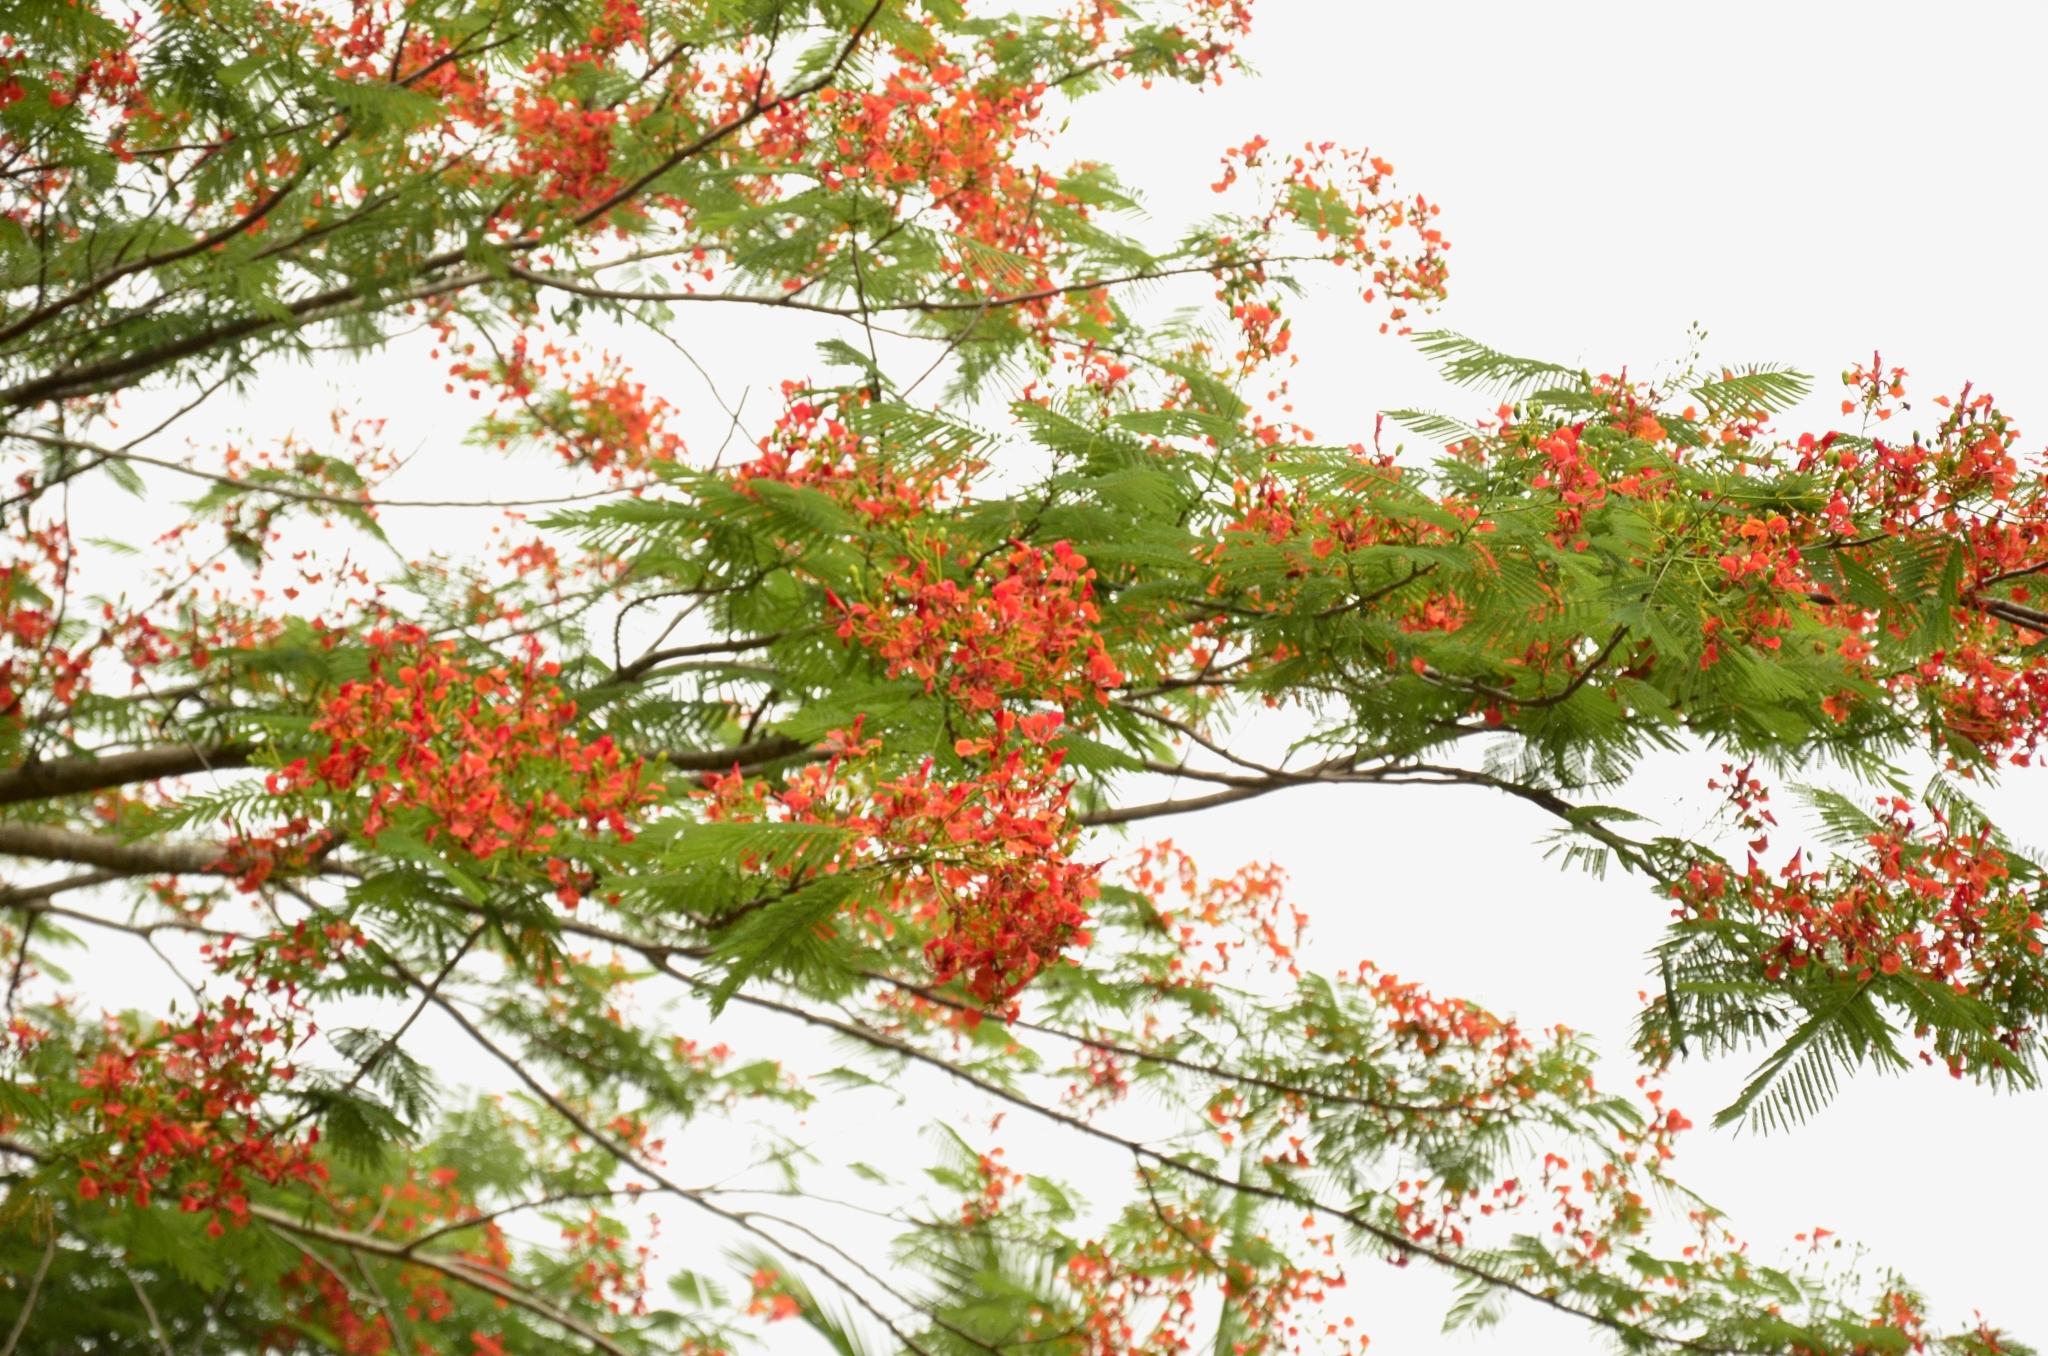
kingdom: Plantae
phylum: Tracheophyta
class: Magnoliopsida
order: Fabales
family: Fabaceae
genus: Delonix
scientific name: Delonix regia
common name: Royal poinciana
